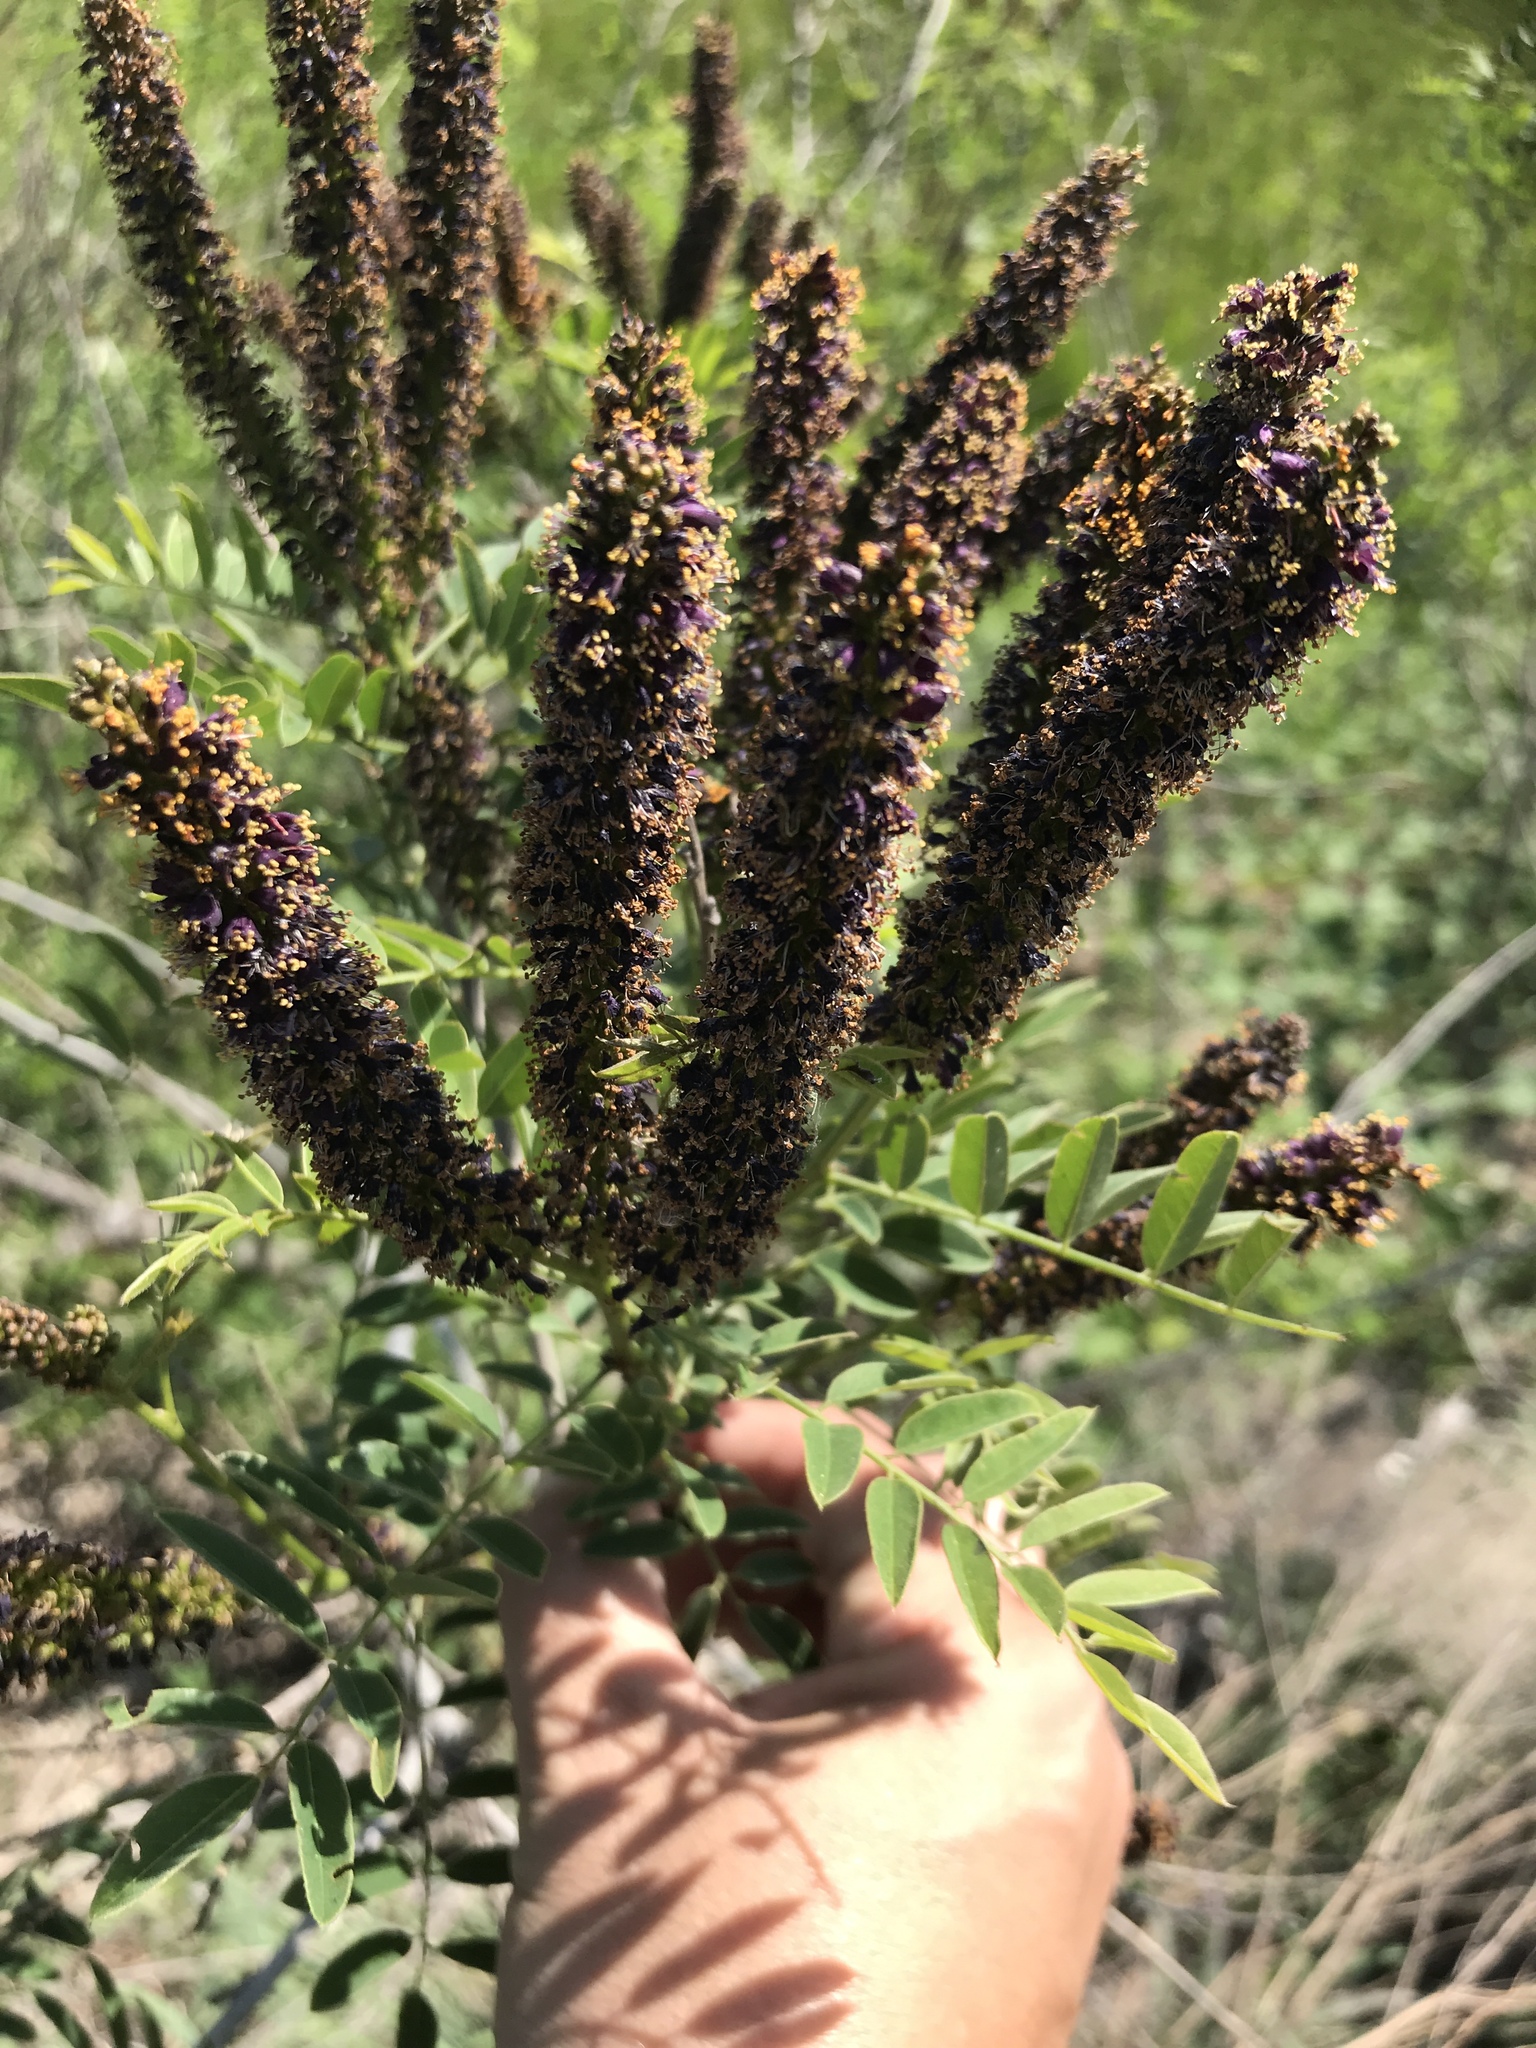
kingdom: Plantae
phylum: Tracheophyta
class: Magnoliopsida
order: Fabales
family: Fabaceae
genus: Amorpha
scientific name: Amorpha fruticosa
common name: False indigo
